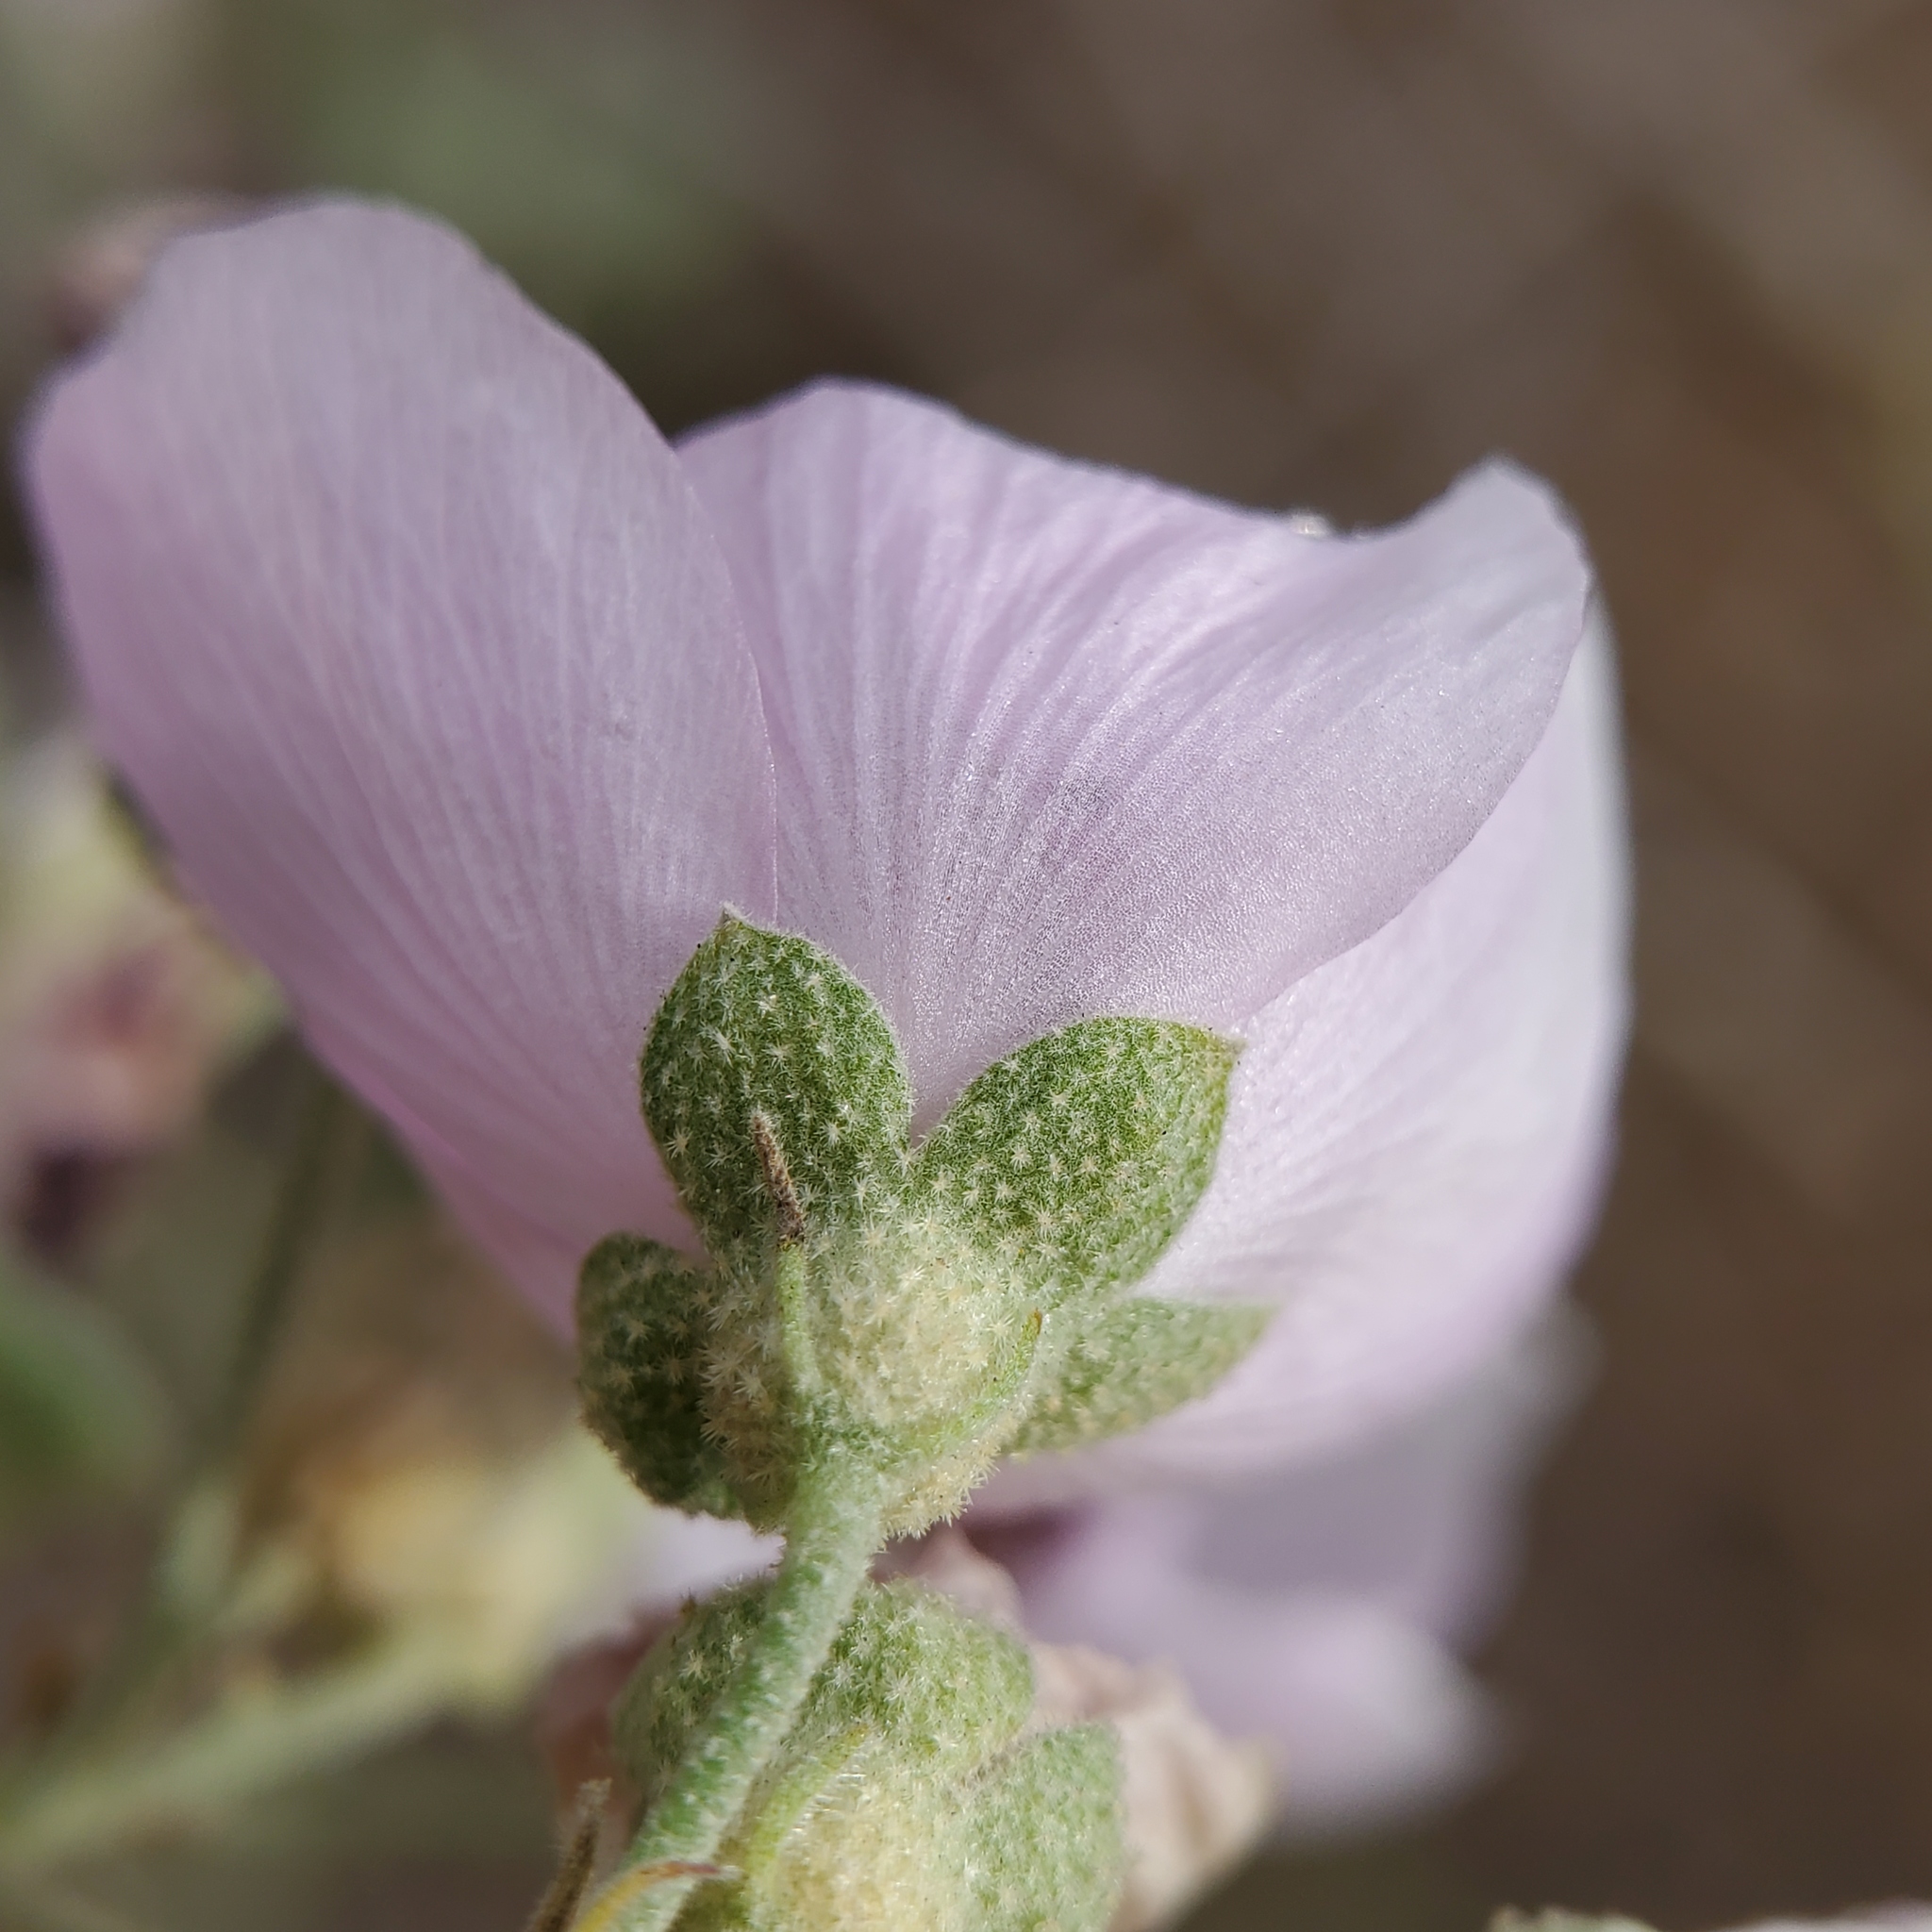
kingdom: Plantae
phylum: Tracheophyta
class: Magnoliopsida
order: Malvales
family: Malvaceae
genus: Malacothamnus
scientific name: Malacothamnus fasciculatus
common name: Sant cruz island bush-mallow
